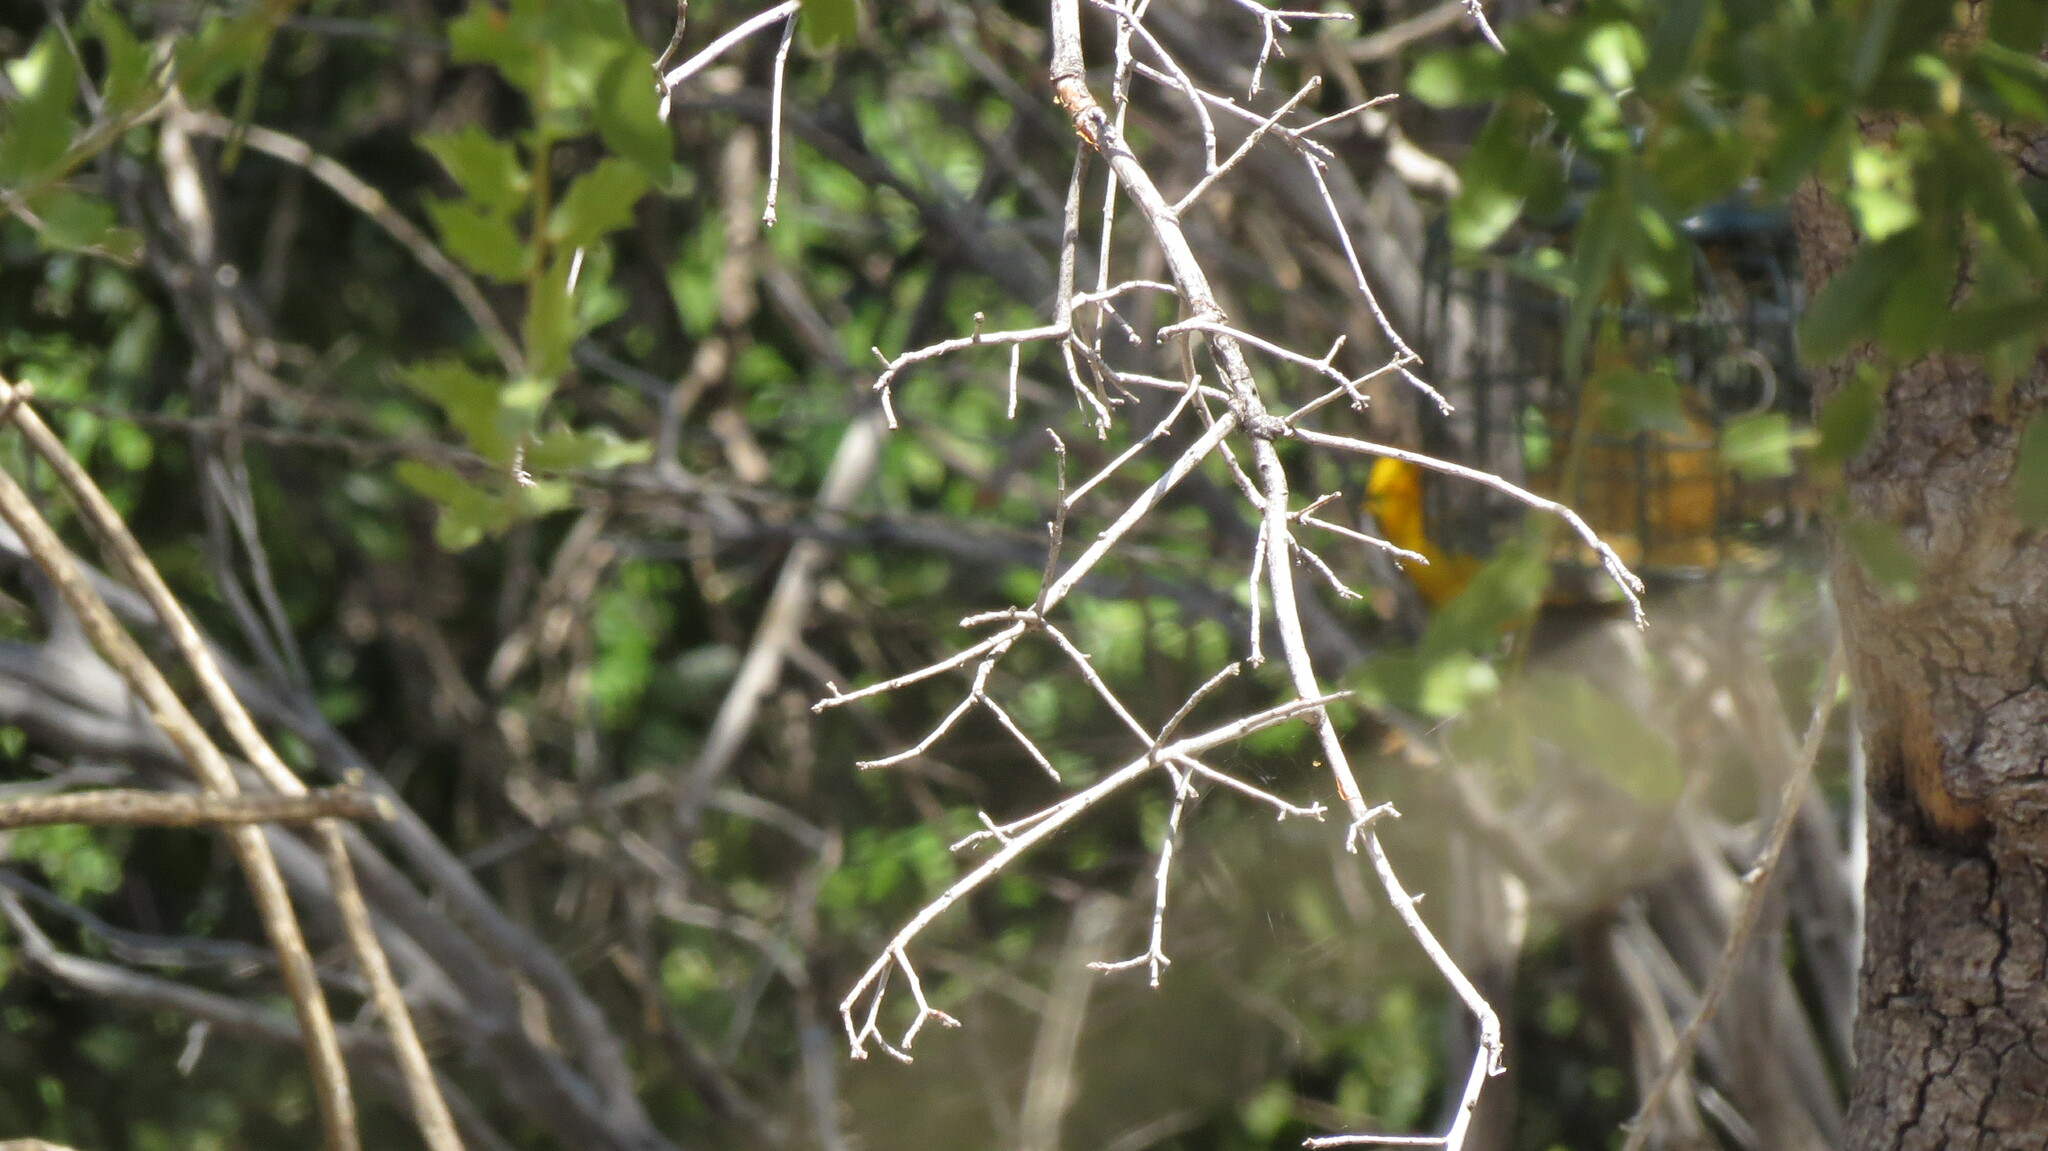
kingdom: Animalia
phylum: Chordata
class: Aves
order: Passeriformes
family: Icteridae
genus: Icterus
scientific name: Icterus bullockii
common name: Bullock's oriole
